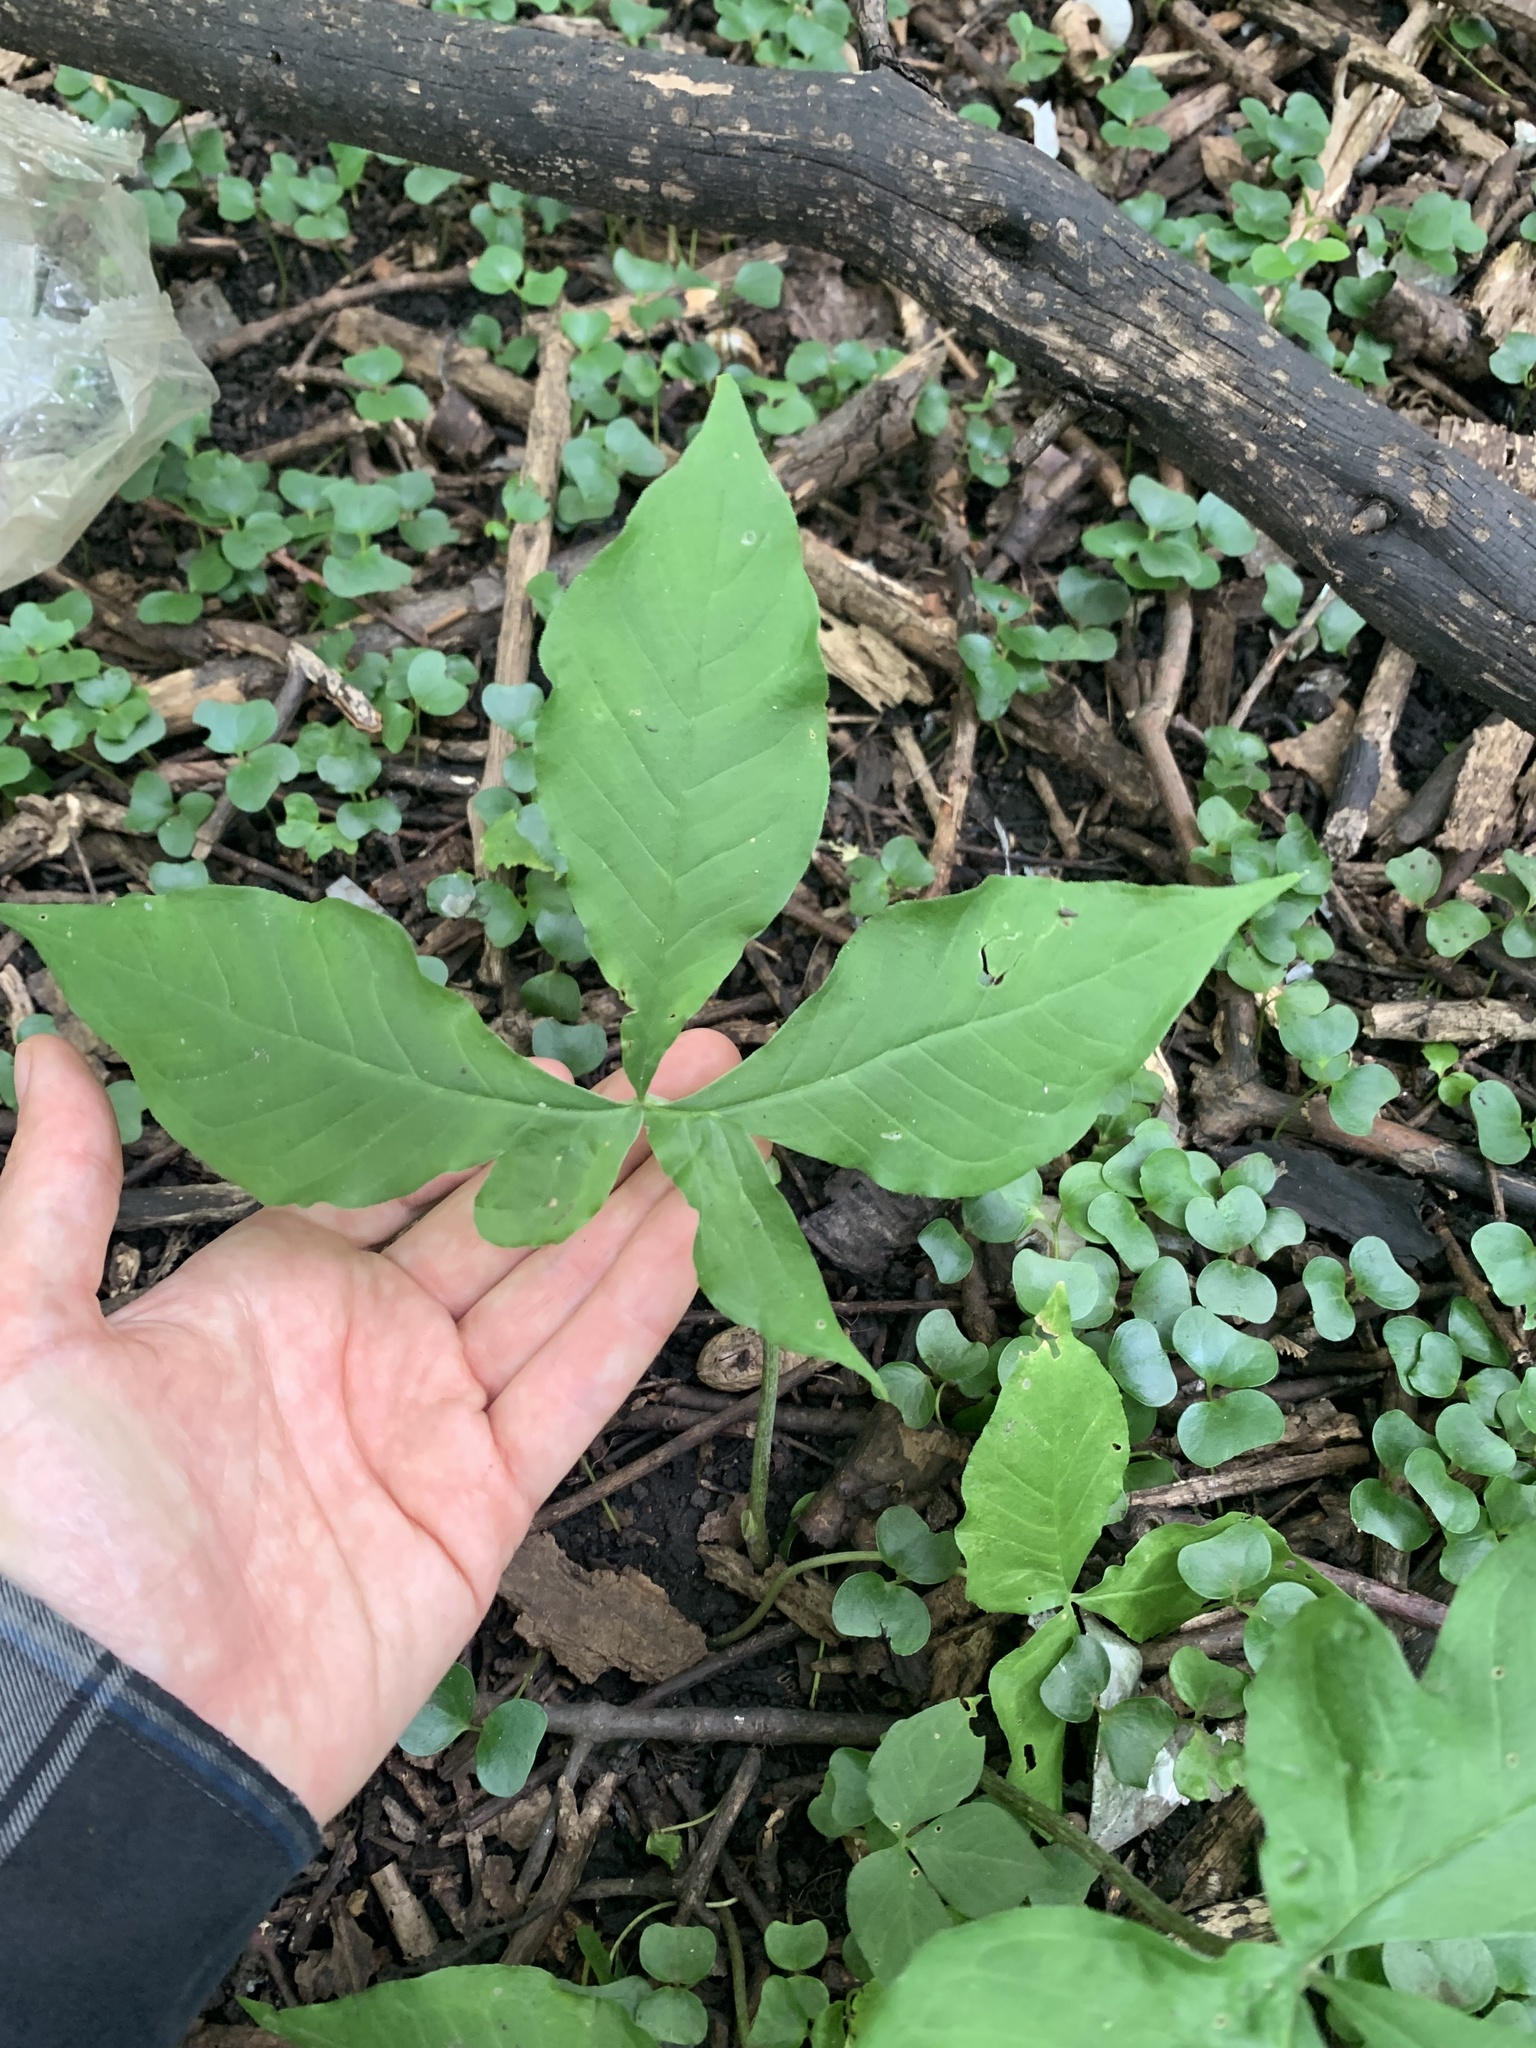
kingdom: Plantae
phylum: Tracheophyta
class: Liliopsida
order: Alismatales
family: Araceae
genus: Arisaema
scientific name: Arisaema triphyllum
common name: Jack-in-the-pulpit
